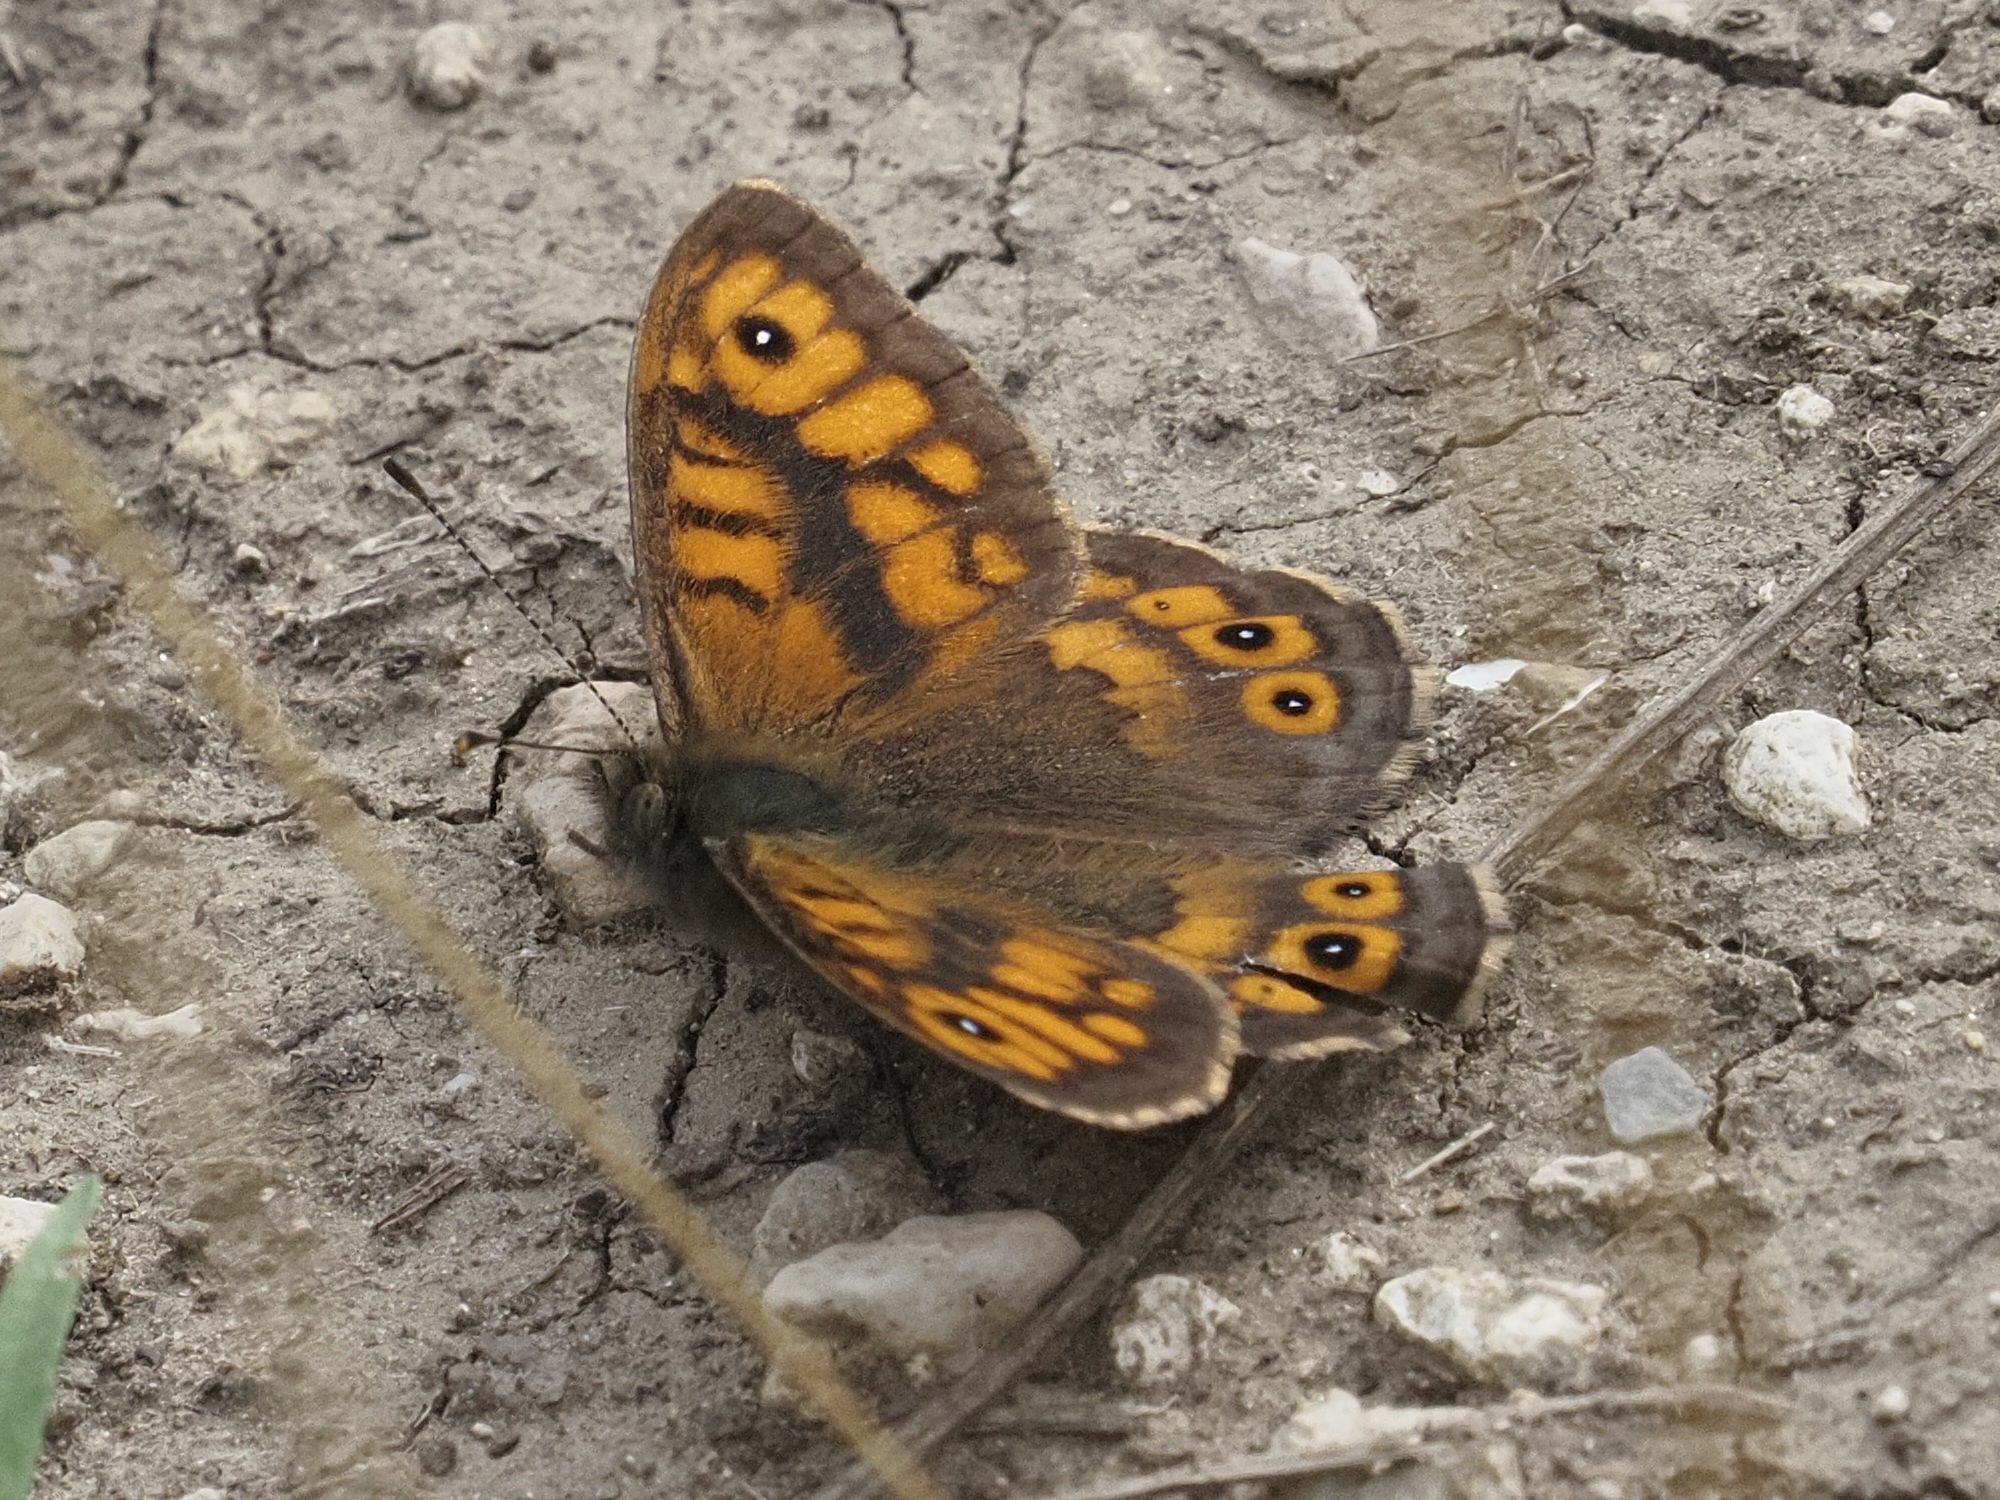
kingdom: Animalia
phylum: Arthropoda
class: Insecta
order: Lepidoptera
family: Nymphalidae
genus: Pararge
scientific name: Pararge Lasiommata megera
